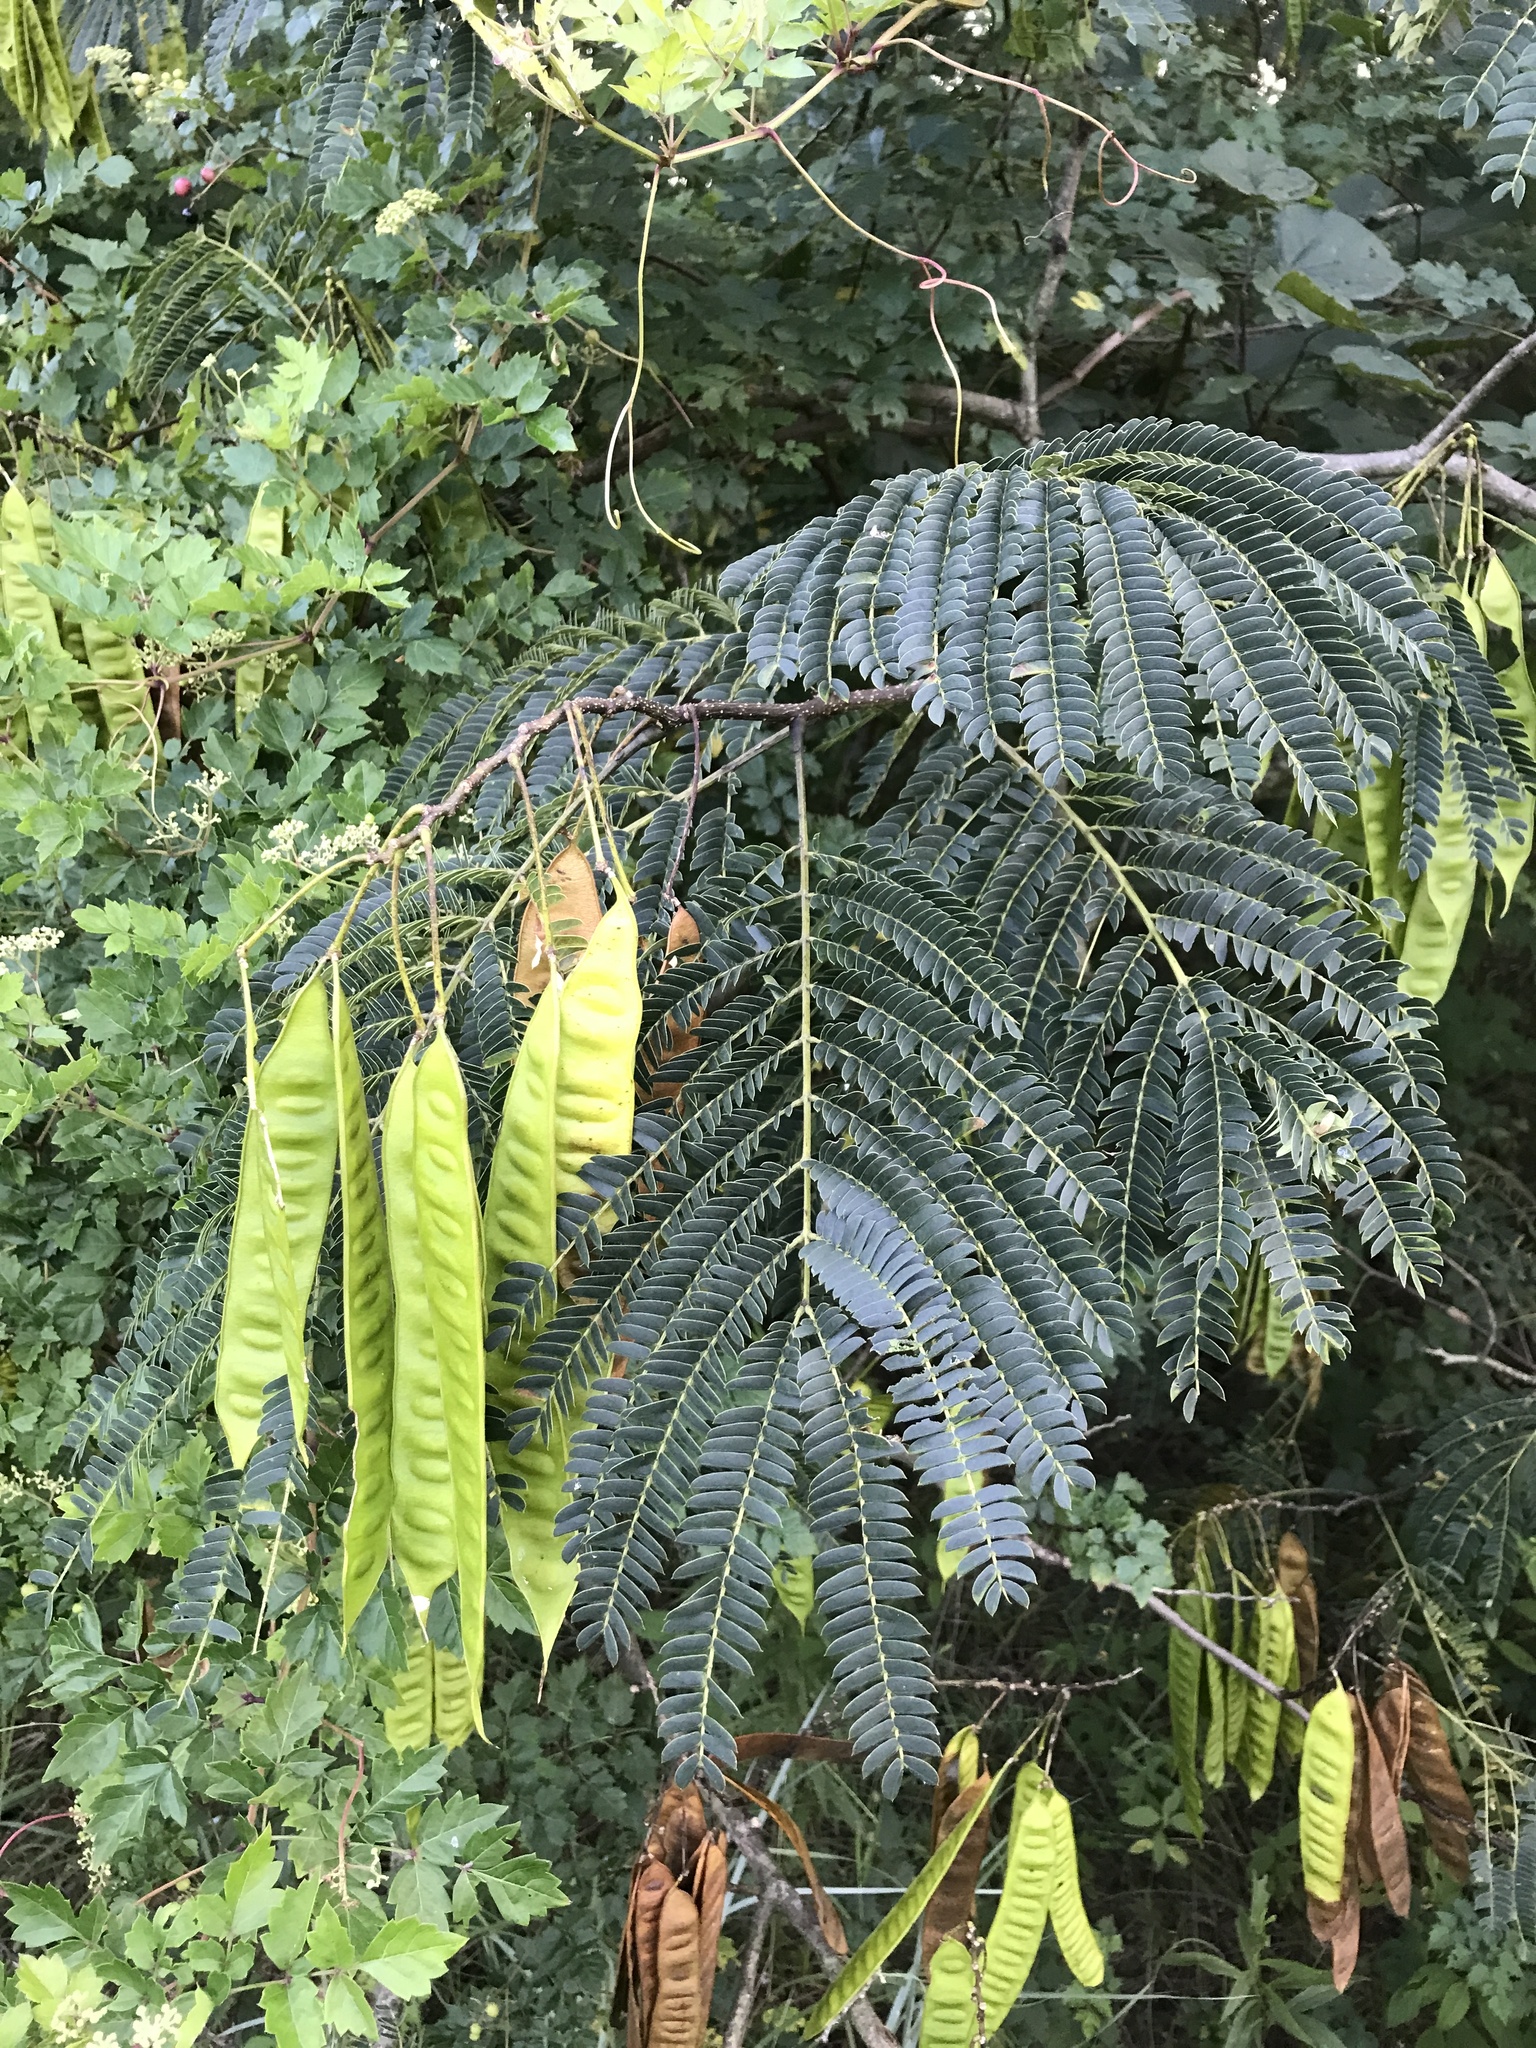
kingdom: Plantae
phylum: Tracheophyta
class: Magnoliopsida
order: Fabales
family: Fabaceae
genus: Albizia
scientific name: Albizia julibrissin
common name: Silktree
